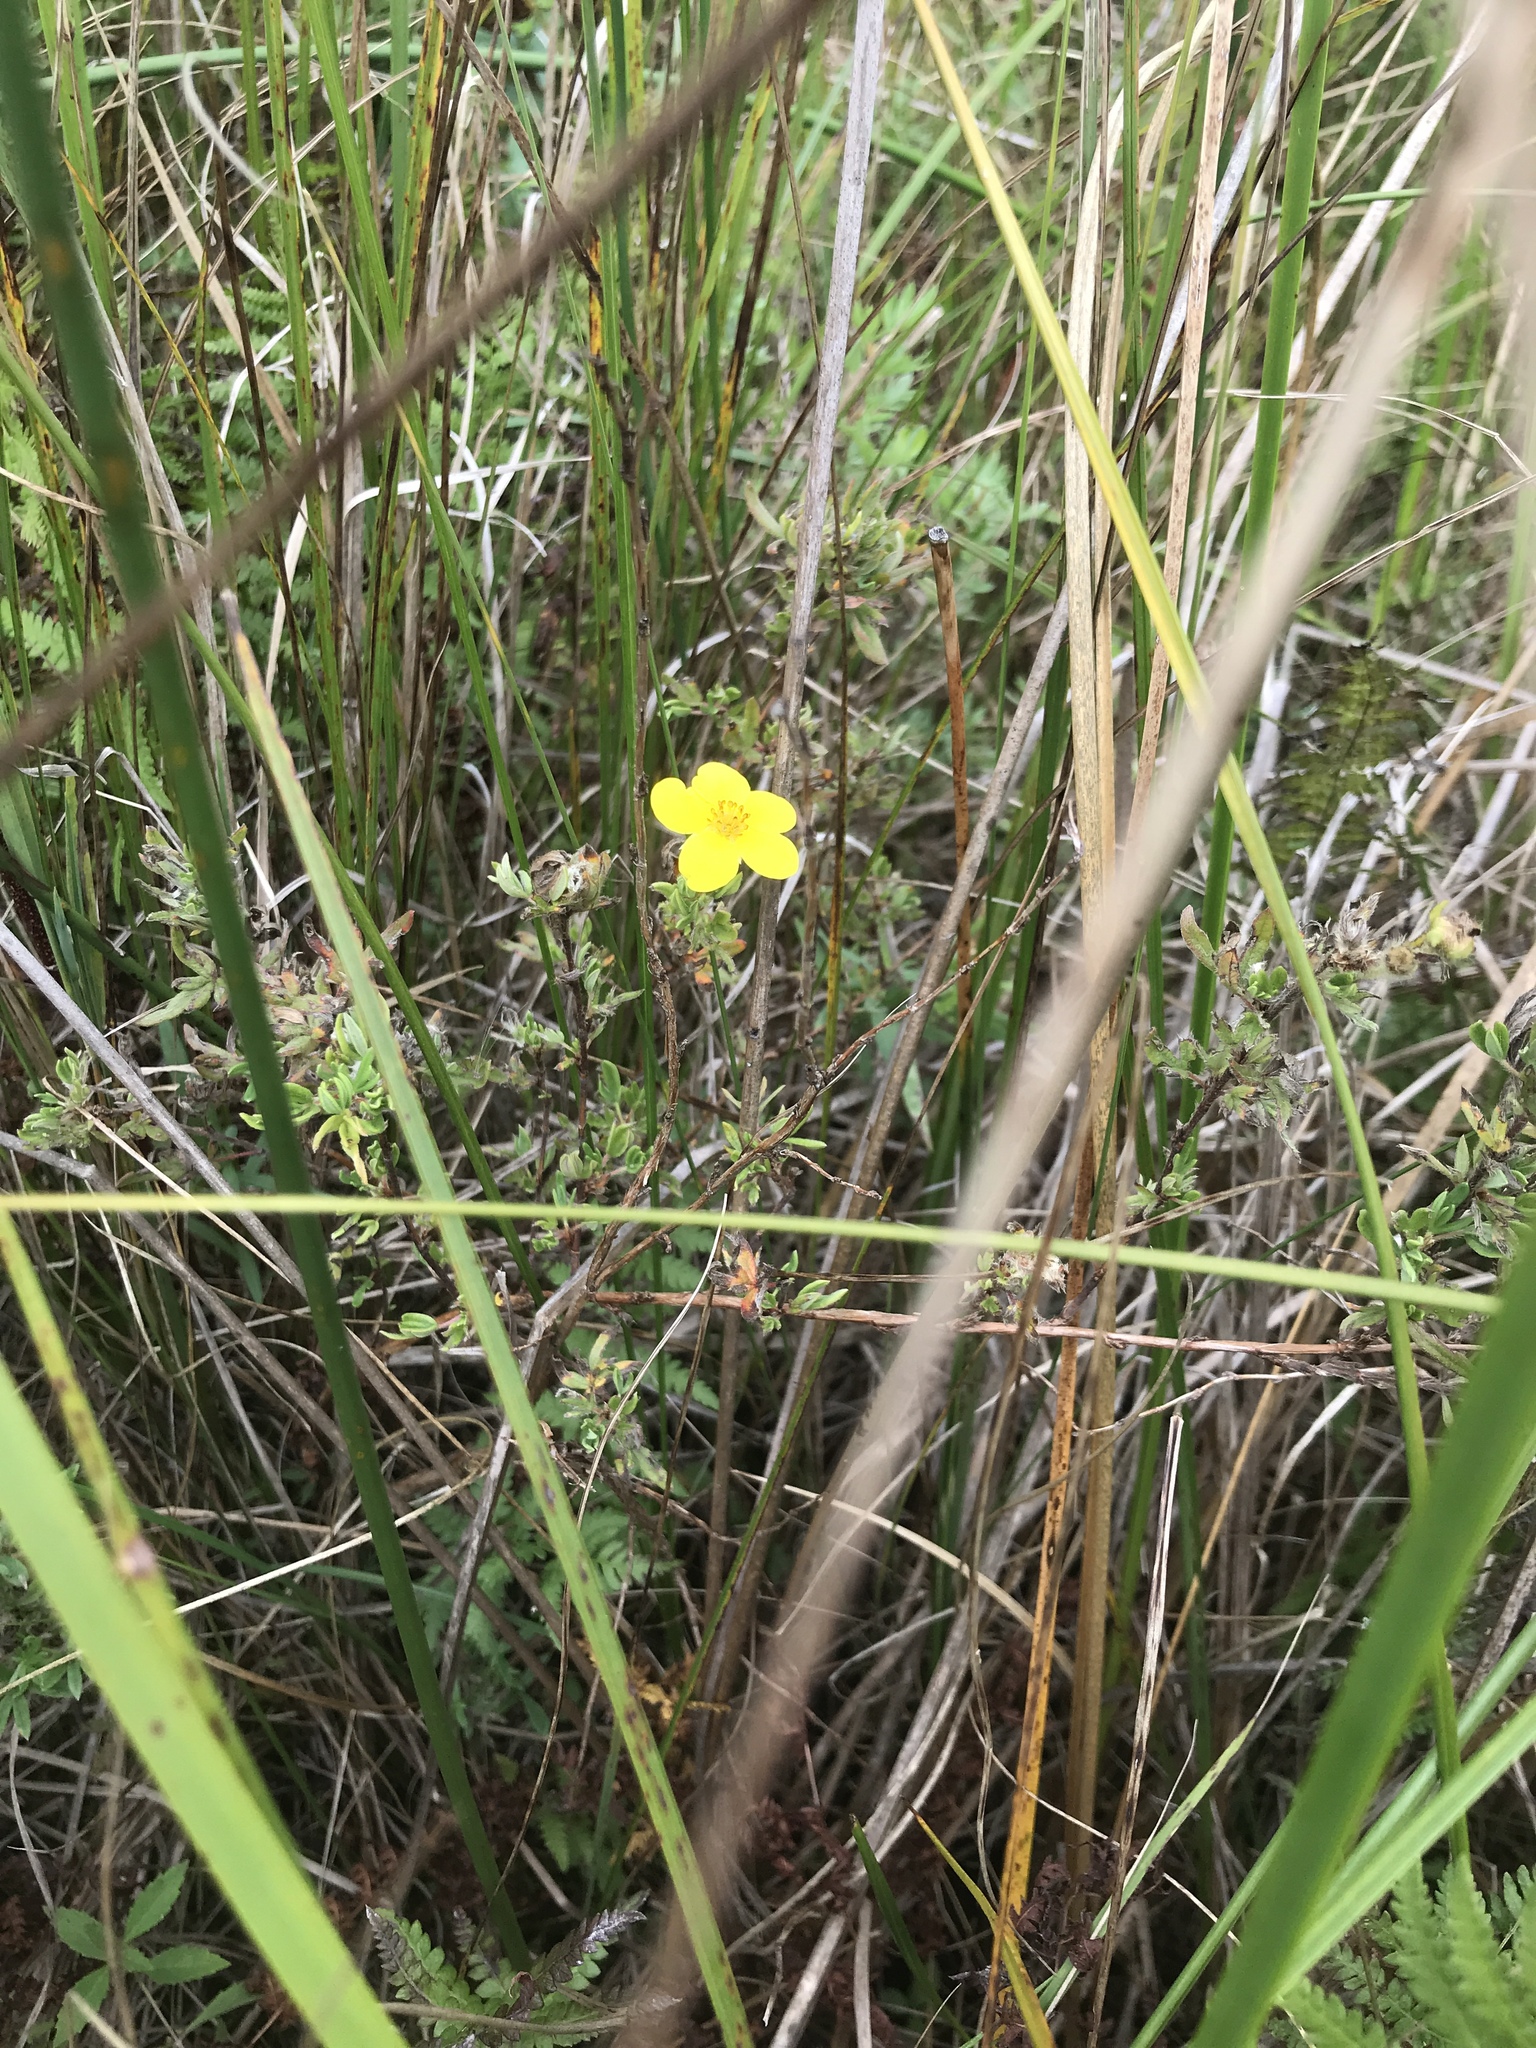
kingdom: Plantae
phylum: Tracheophyta
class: Magnoliopsida
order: Rosales
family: Rosaceae
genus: Dasiphora
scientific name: Dasiphora fruticosa
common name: Shrubby cinquefoil
